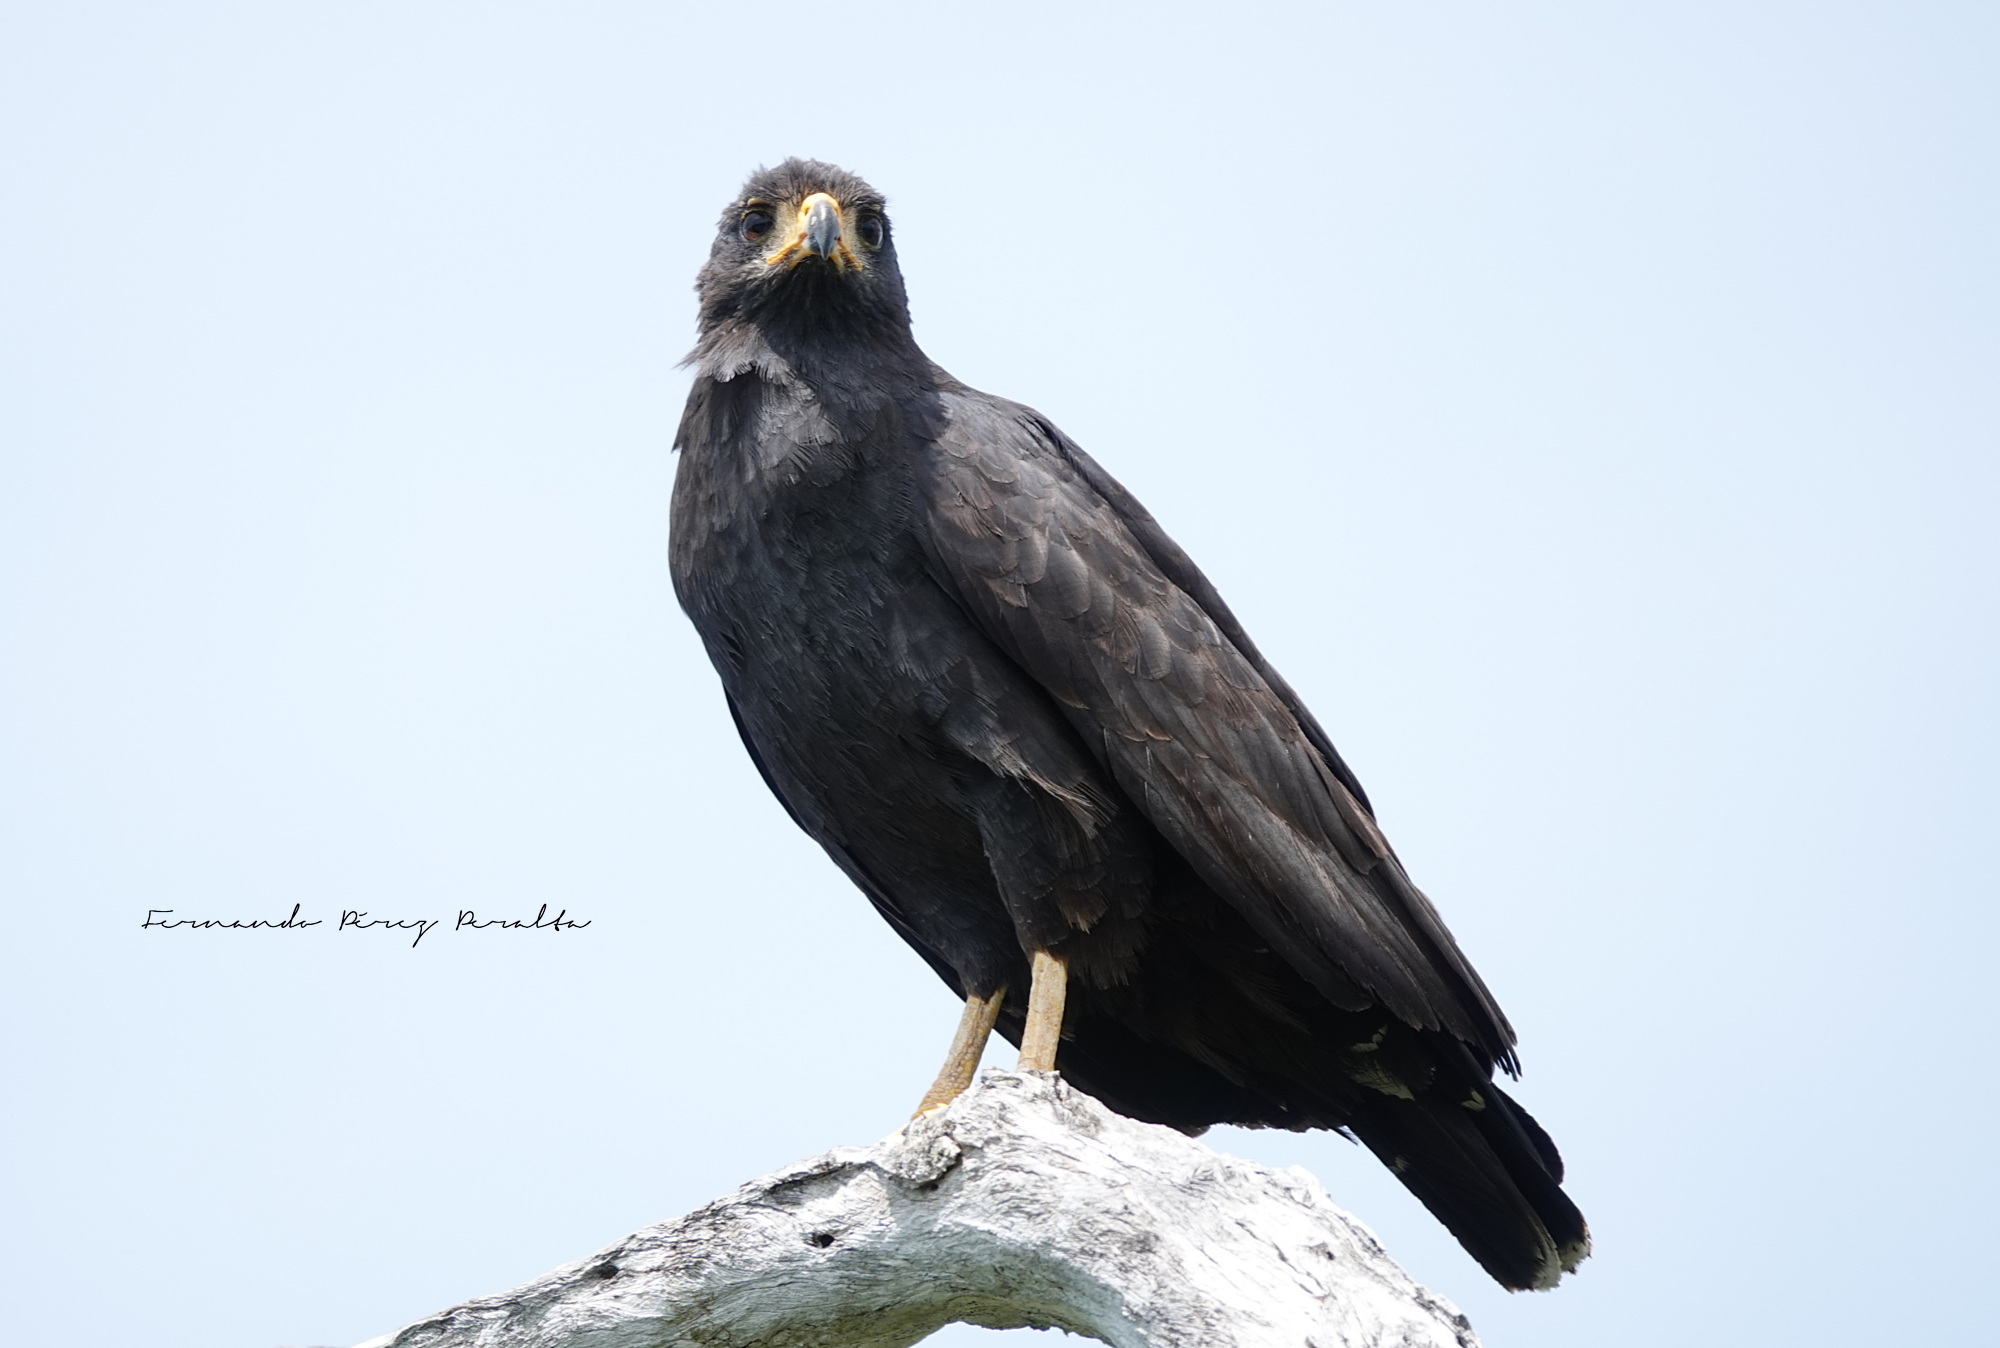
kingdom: Animalia
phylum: Chordata
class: Aves
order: Accipitriformes
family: Accipitridae
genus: Buteogallus
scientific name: Buteogallus anthracinus
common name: Common black hawk
